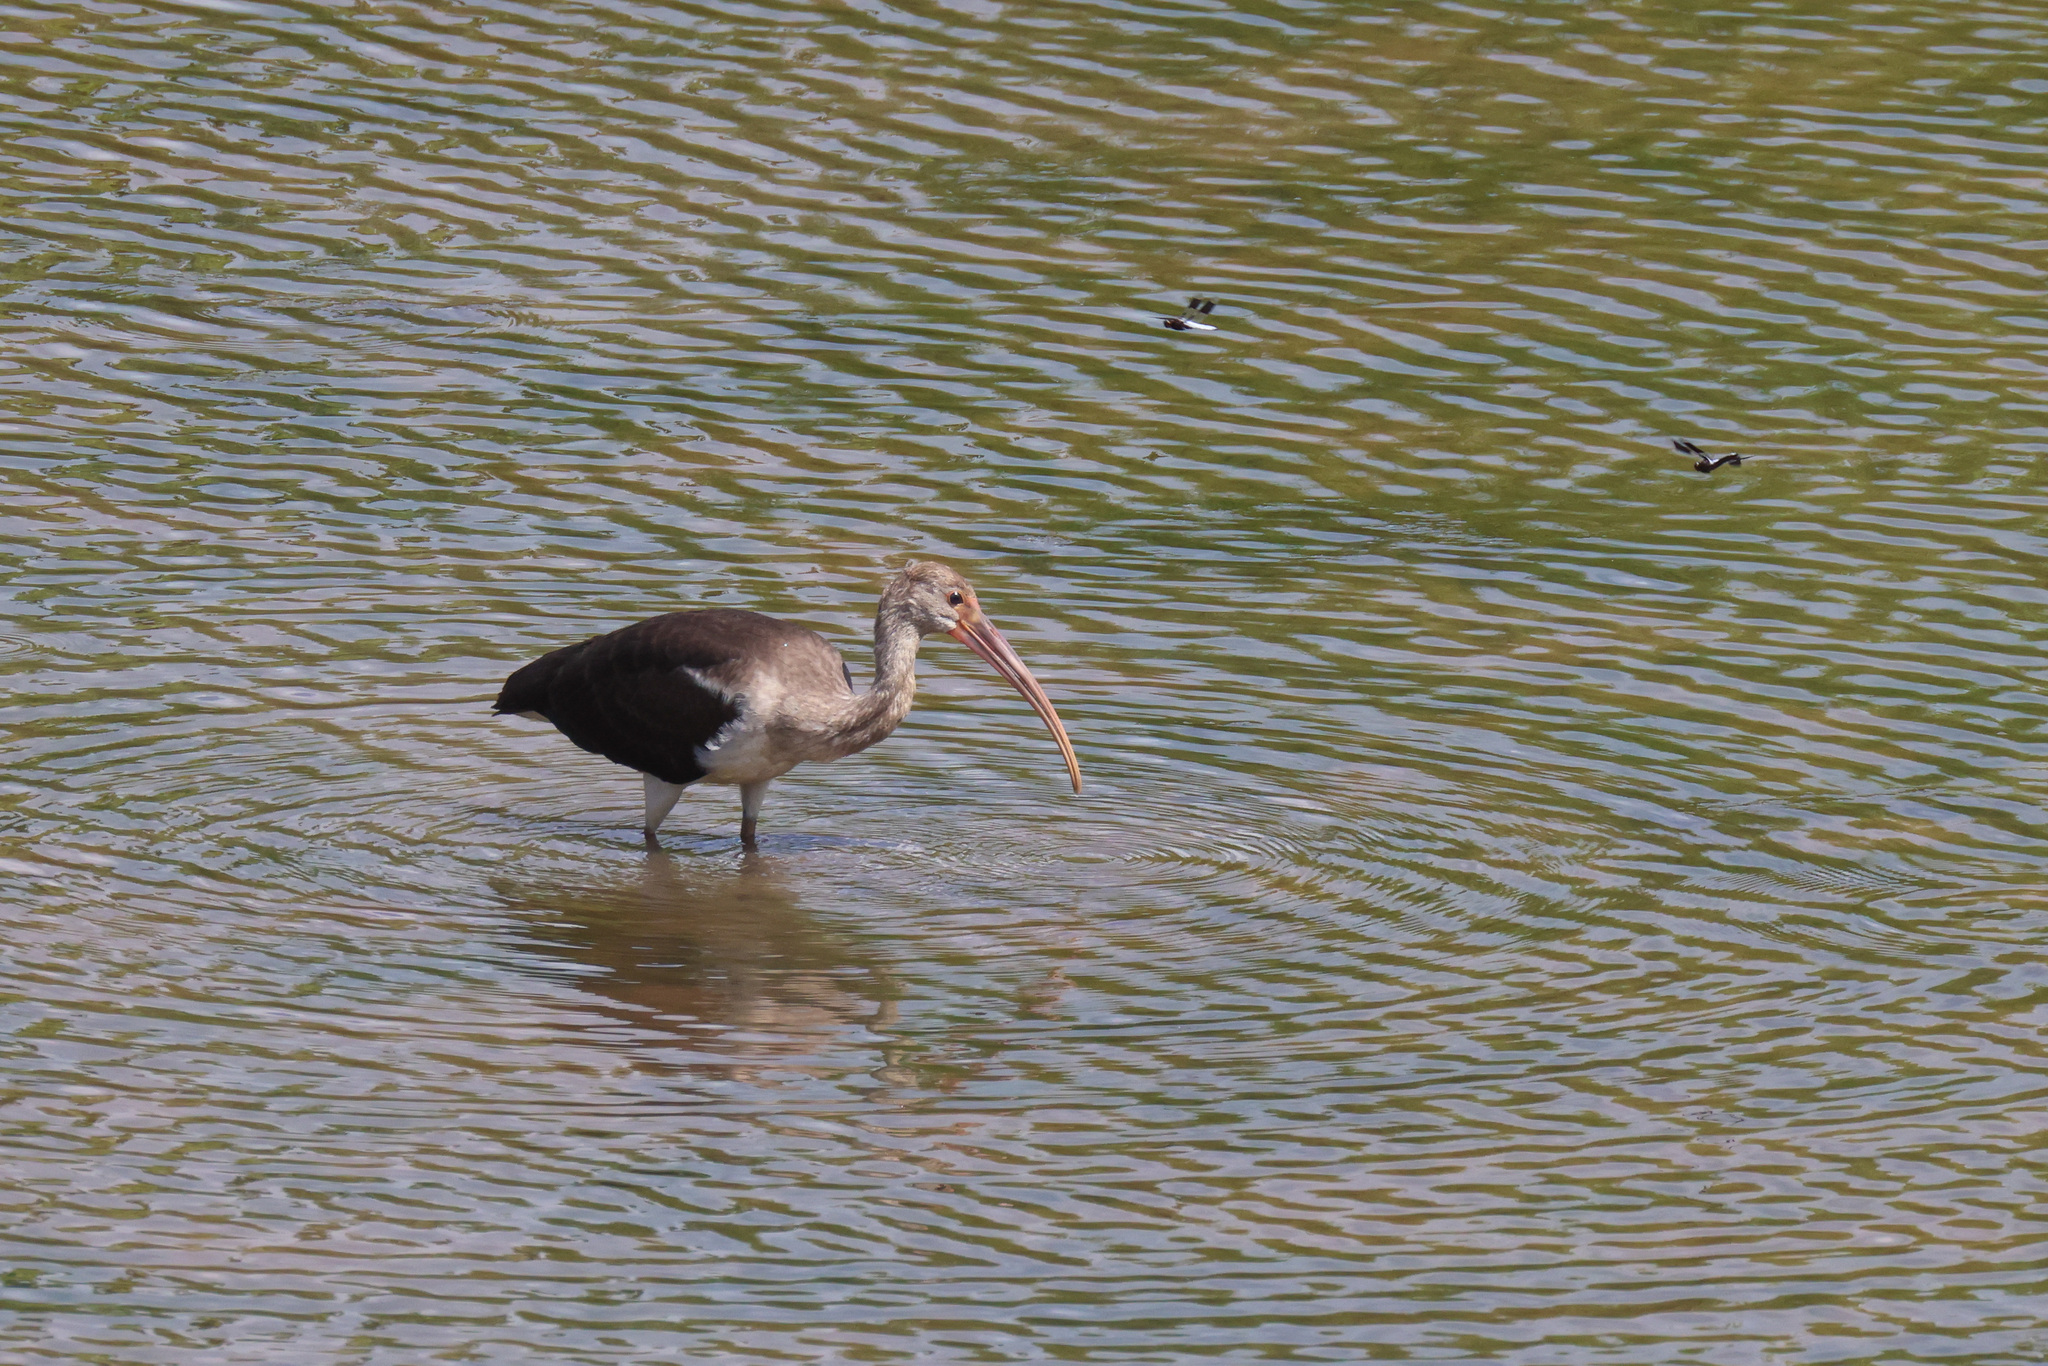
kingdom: Animalia
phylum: Chordata
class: Aves
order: Pelecaniformes
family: Threskiornithidae
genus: Eudocimus
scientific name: Eudocimus albus
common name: White ibis
